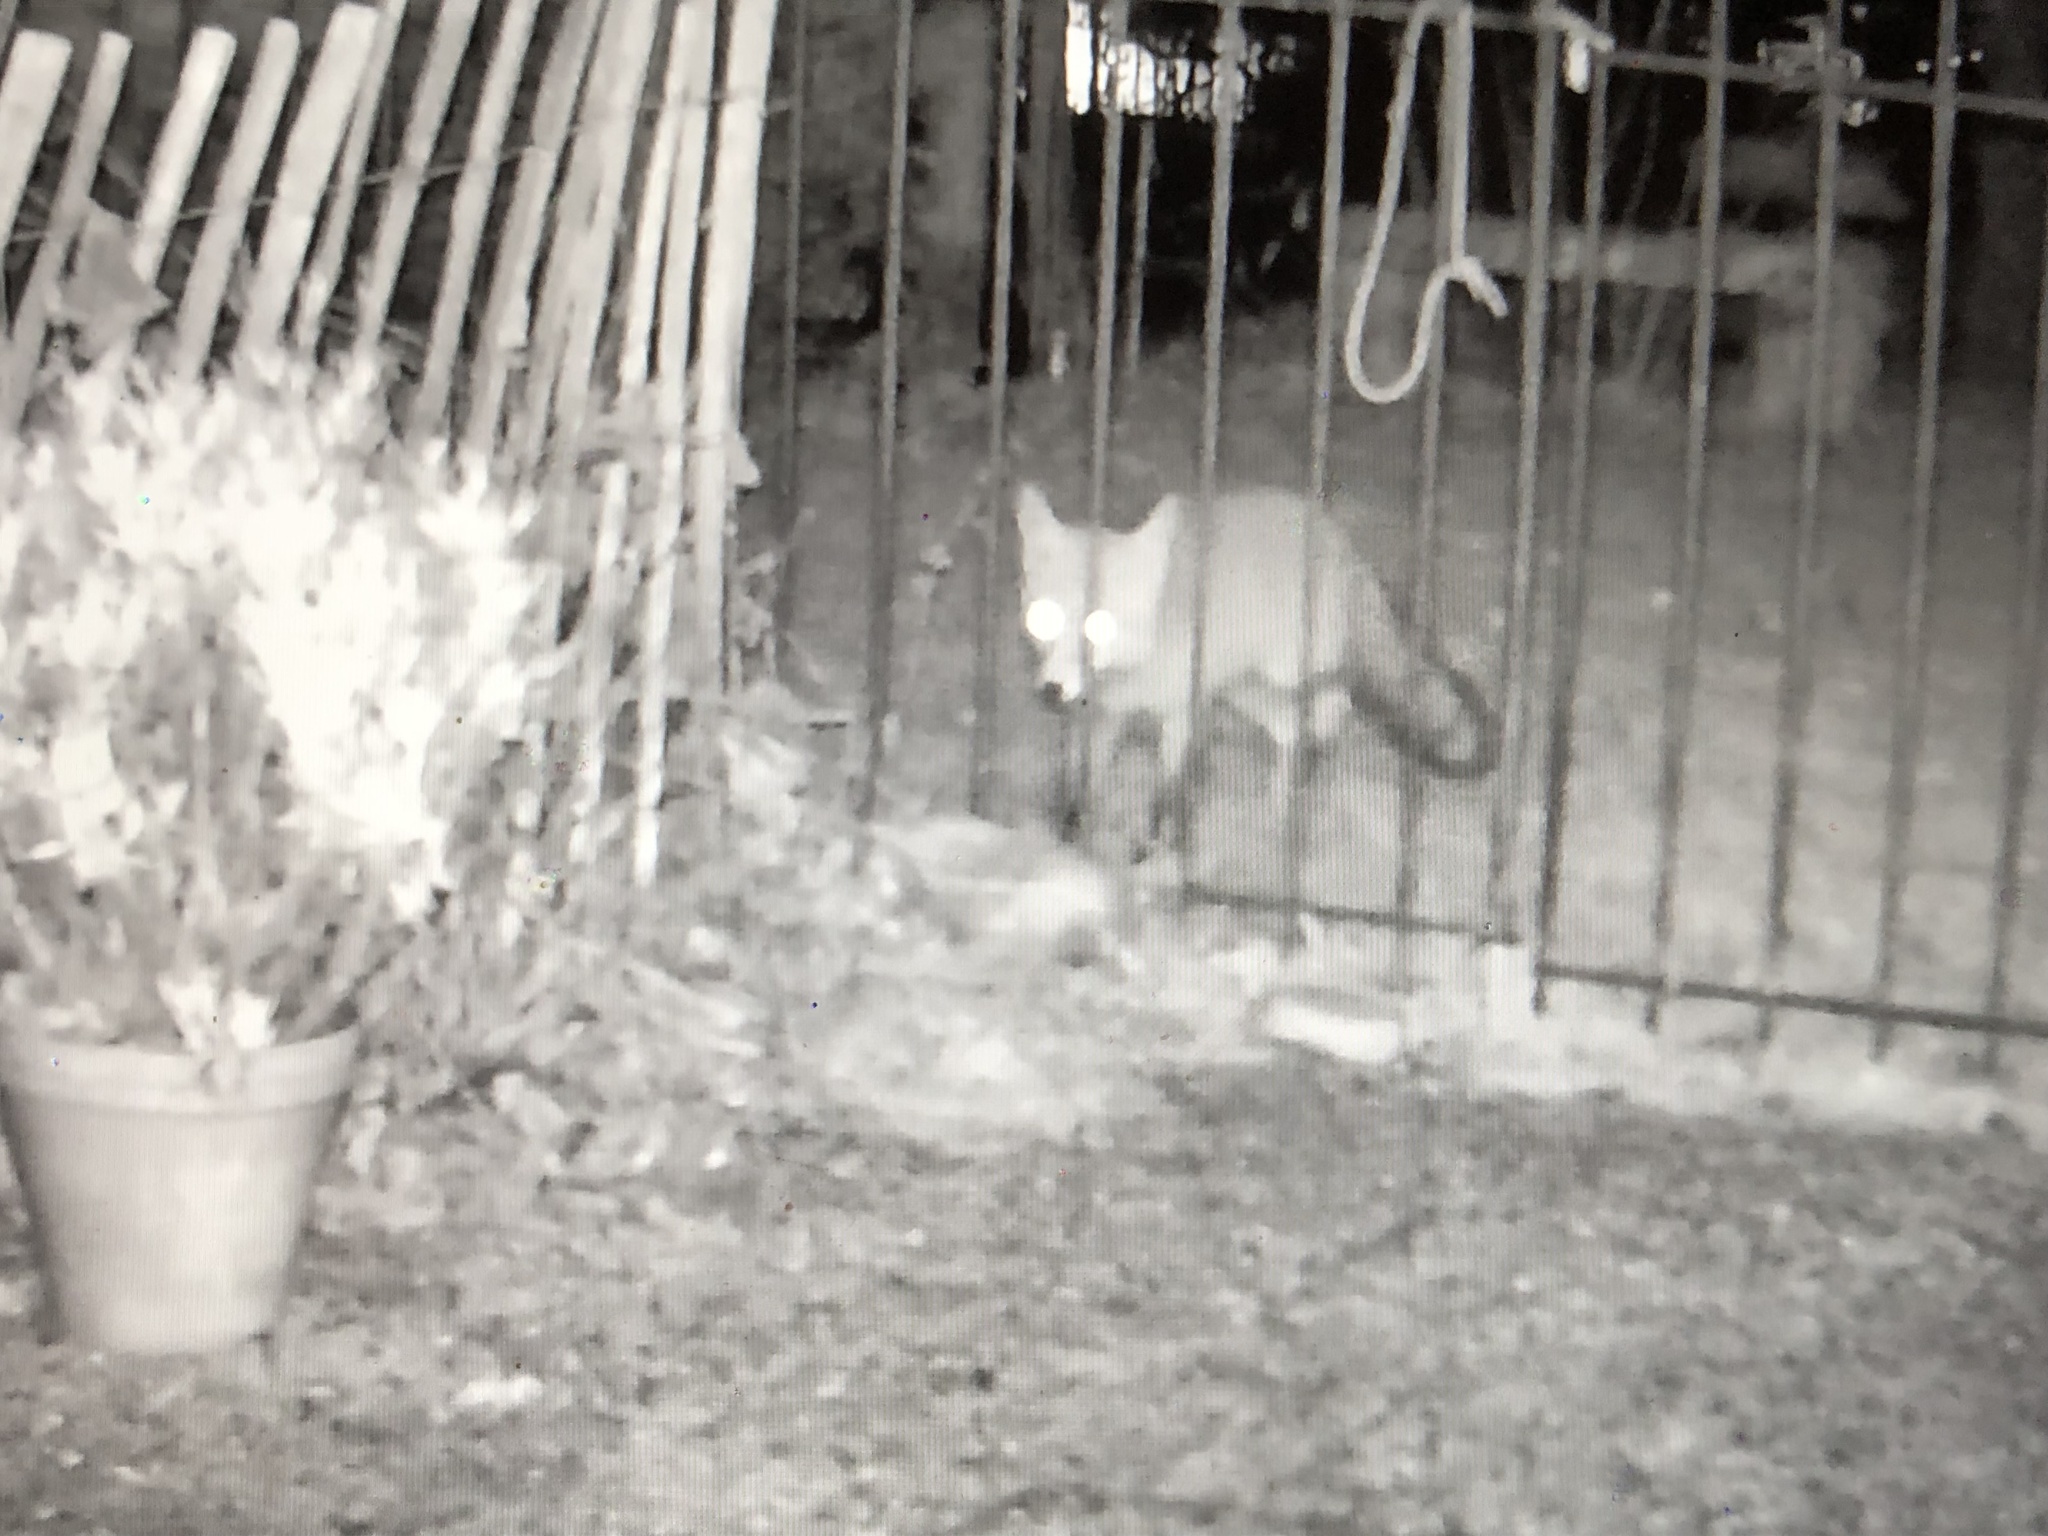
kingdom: Animalia
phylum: Chordata
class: Mammalia
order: Carnivora
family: Canidae
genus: Vulpes
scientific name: Vulpes vulpes
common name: Red fox
